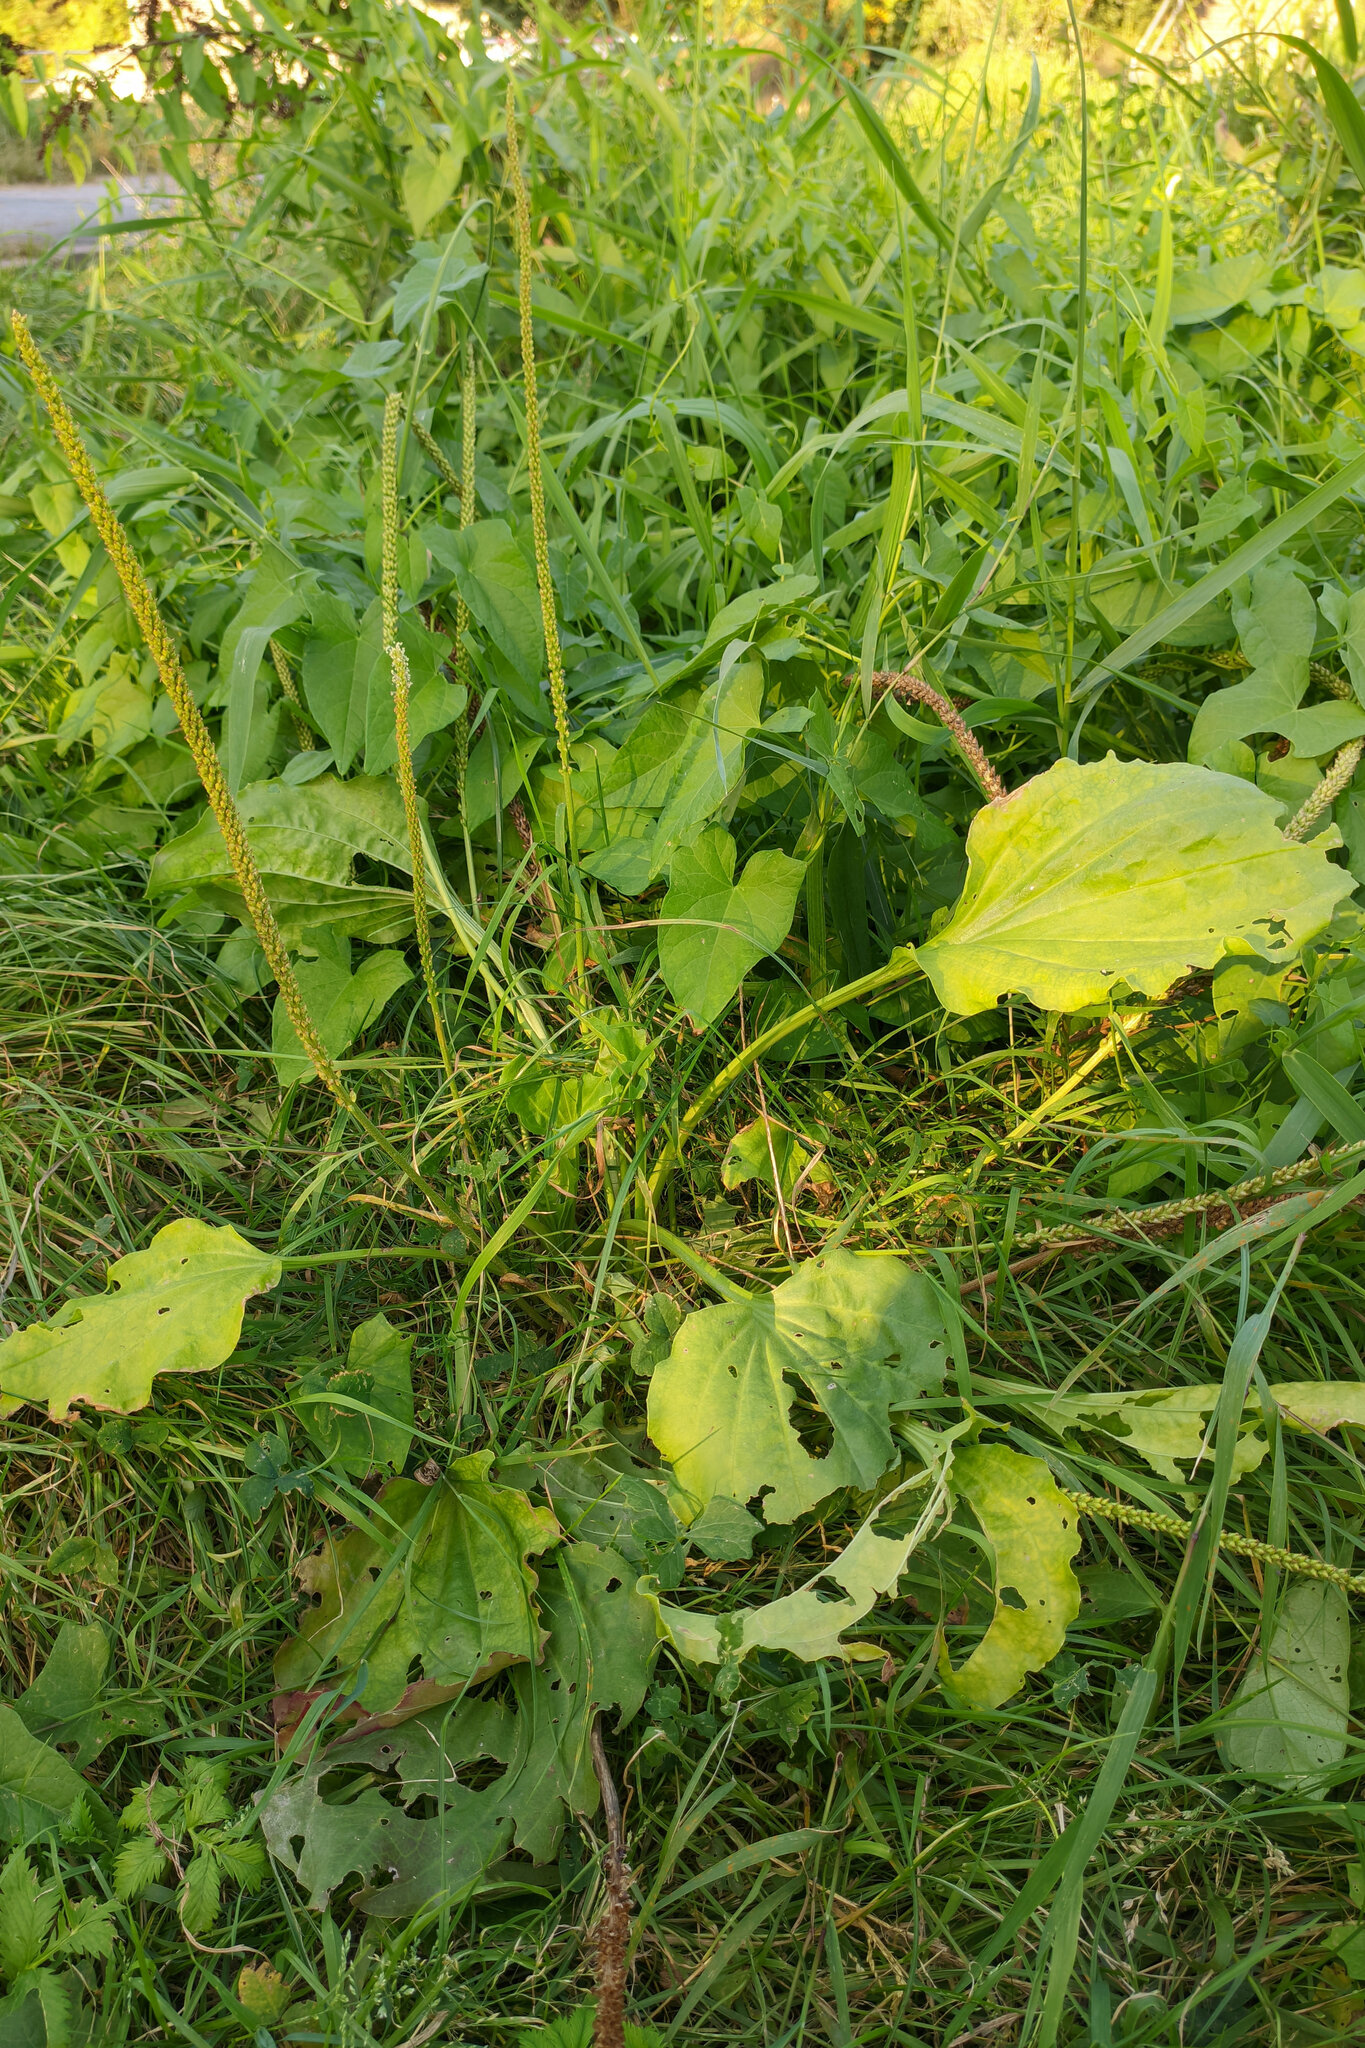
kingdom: Plantae
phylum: Tracheophyta
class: Magnoliopsida
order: Lamiales
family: Plantaginaceae
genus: Plantago
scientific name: Plantago major
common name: Common plantain
